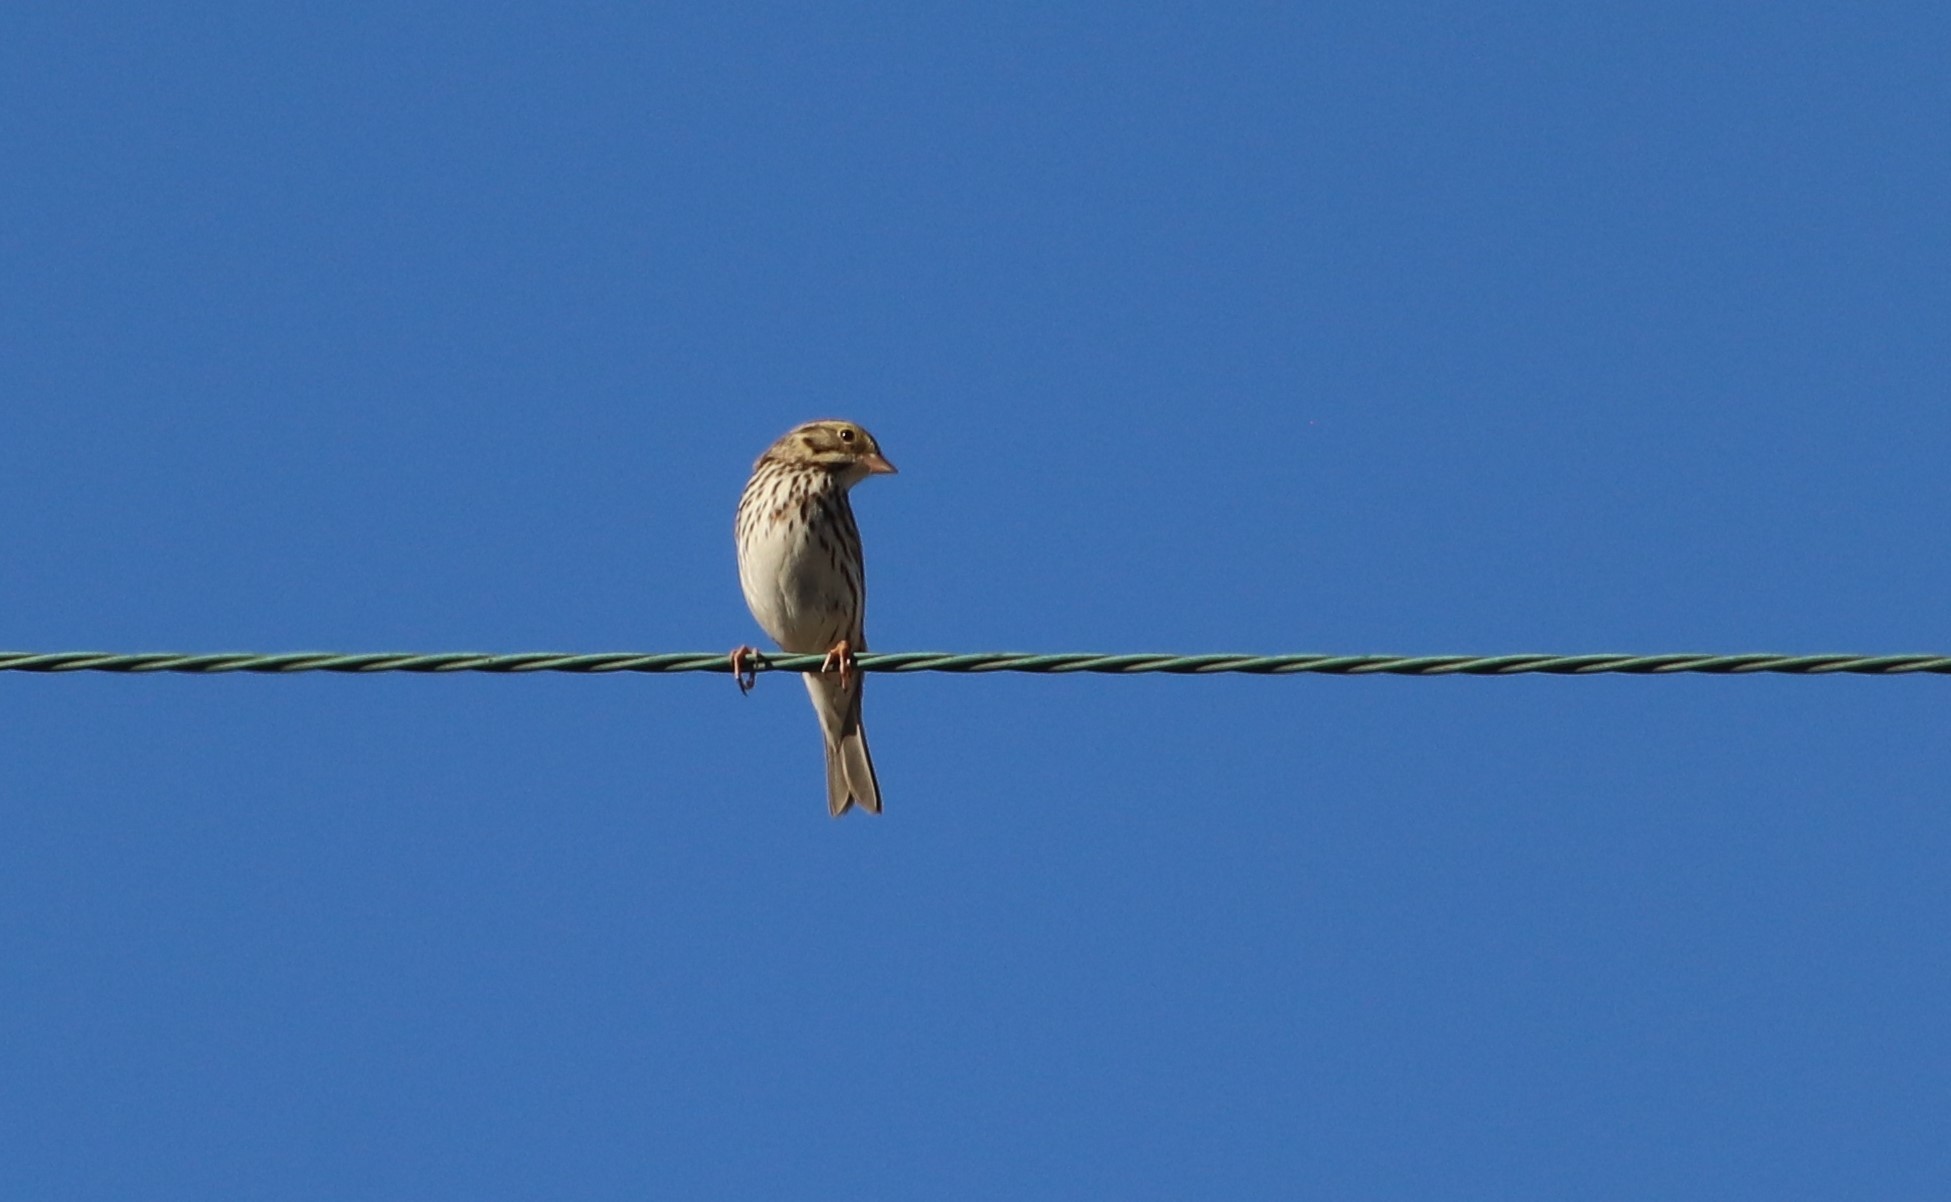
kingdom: Animalia
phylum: Chordata
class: Aves
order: Passeriformes
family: Passerellidae
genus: Passerculus
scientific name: Passerculus sandwichensis
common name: Savannah sparrow
